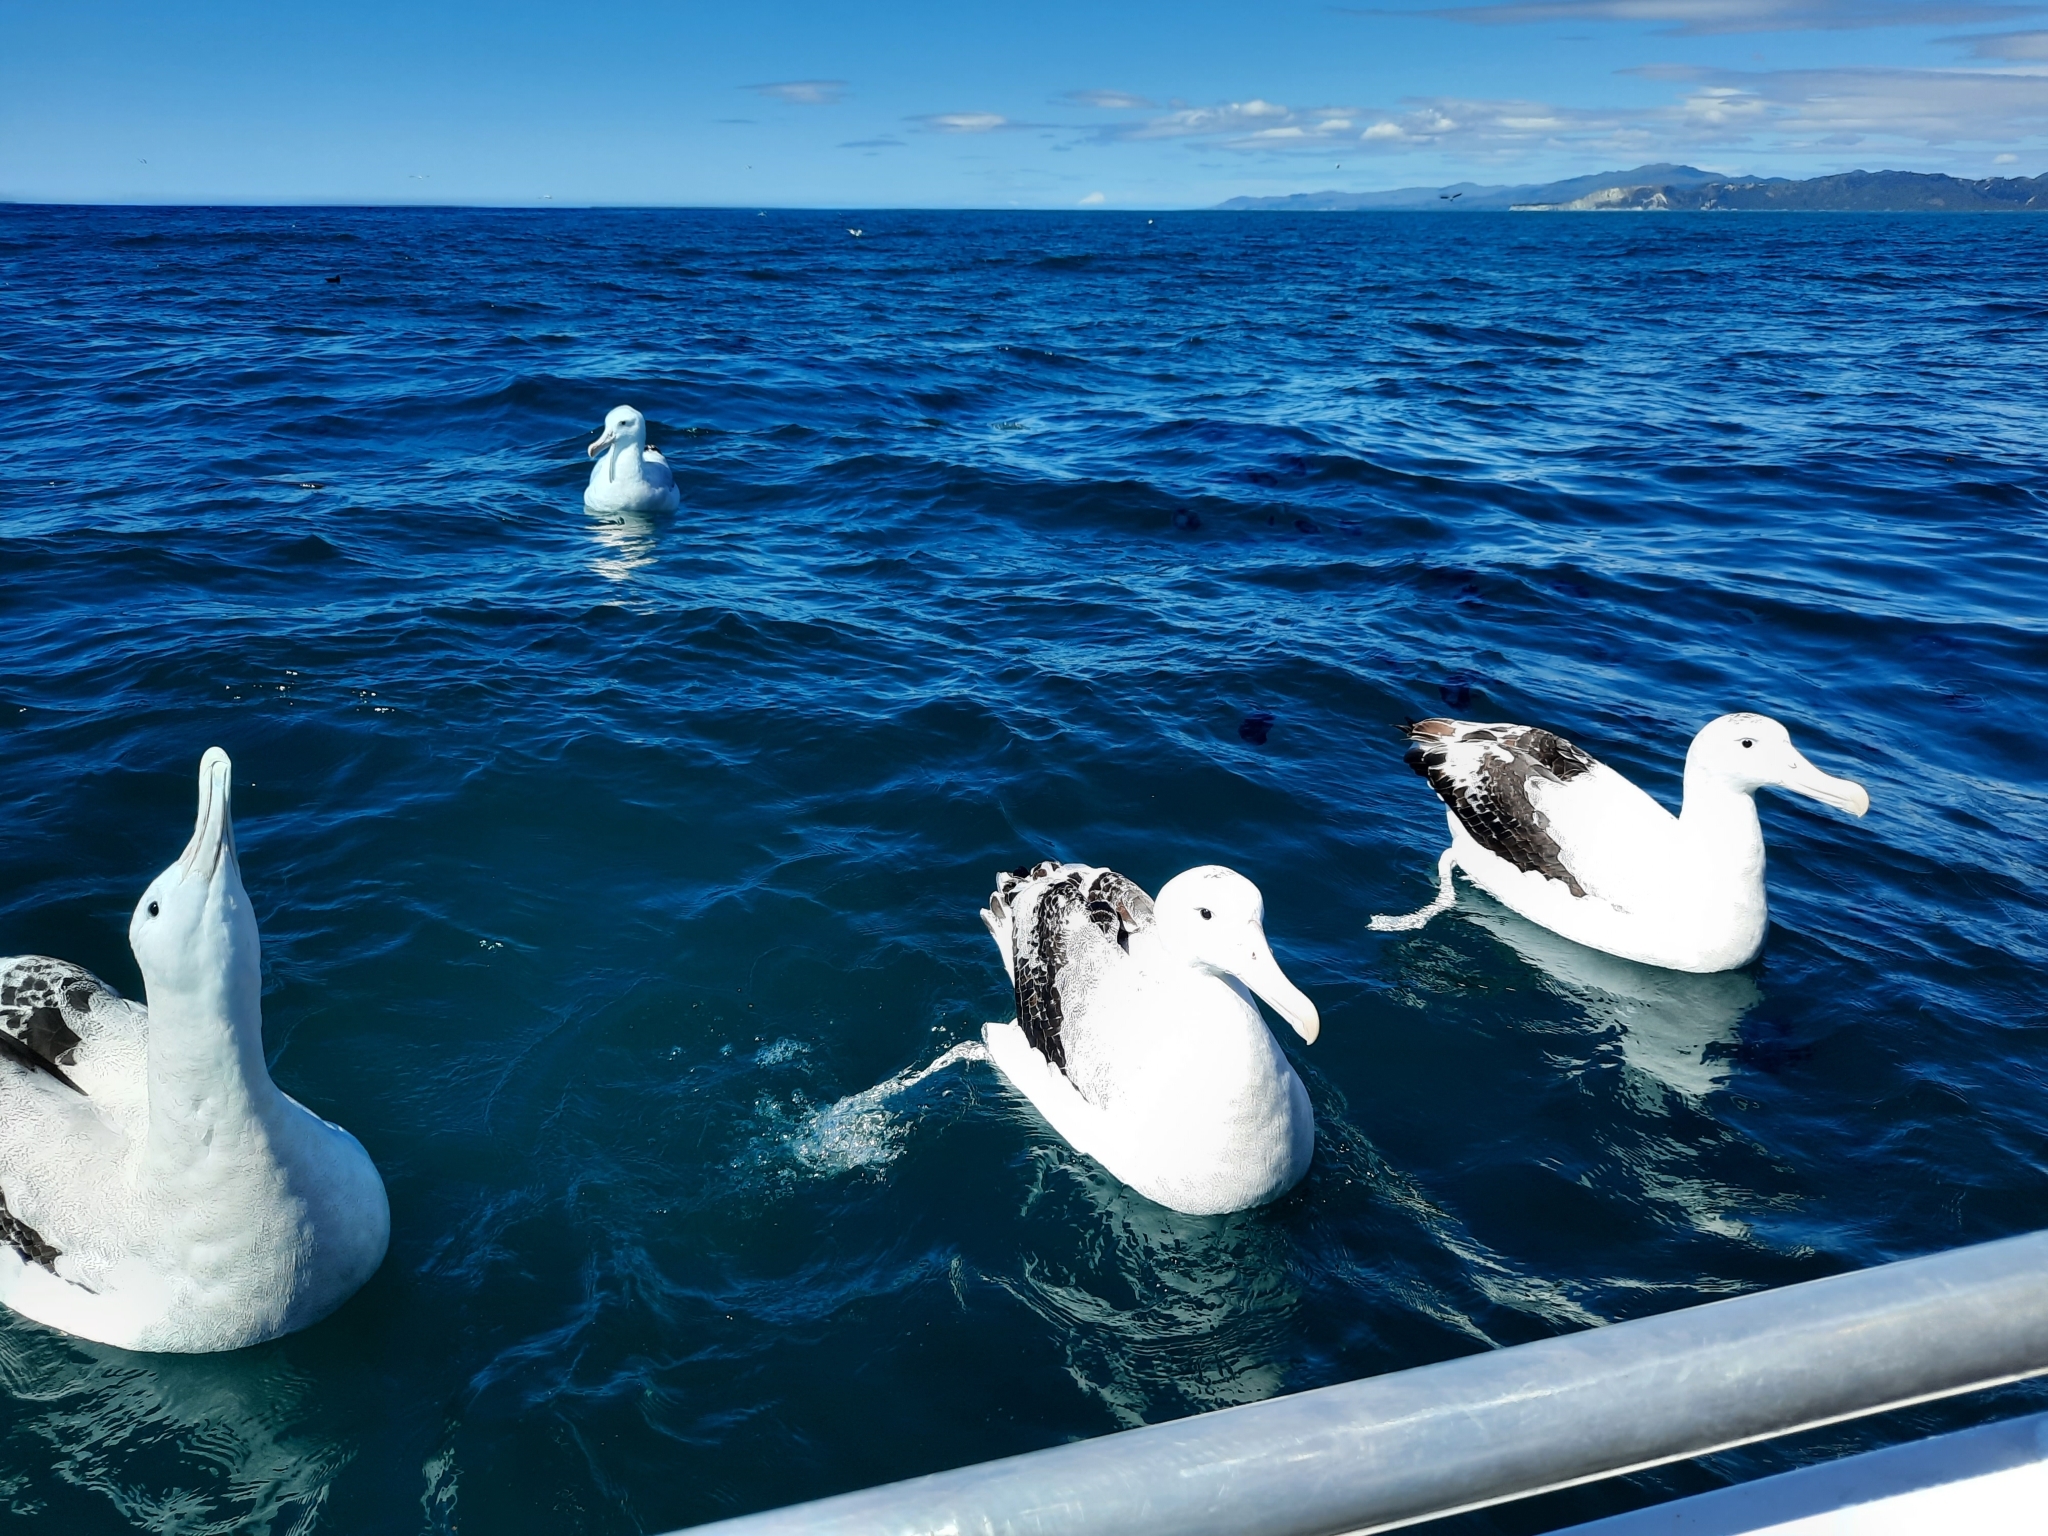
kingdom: Animalia
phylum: Chordata
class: Aves
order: Procellariiformes
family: Diomedeidae
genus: Diomedea
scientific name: Diomedea antipodensis
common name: Antipodean albatross
